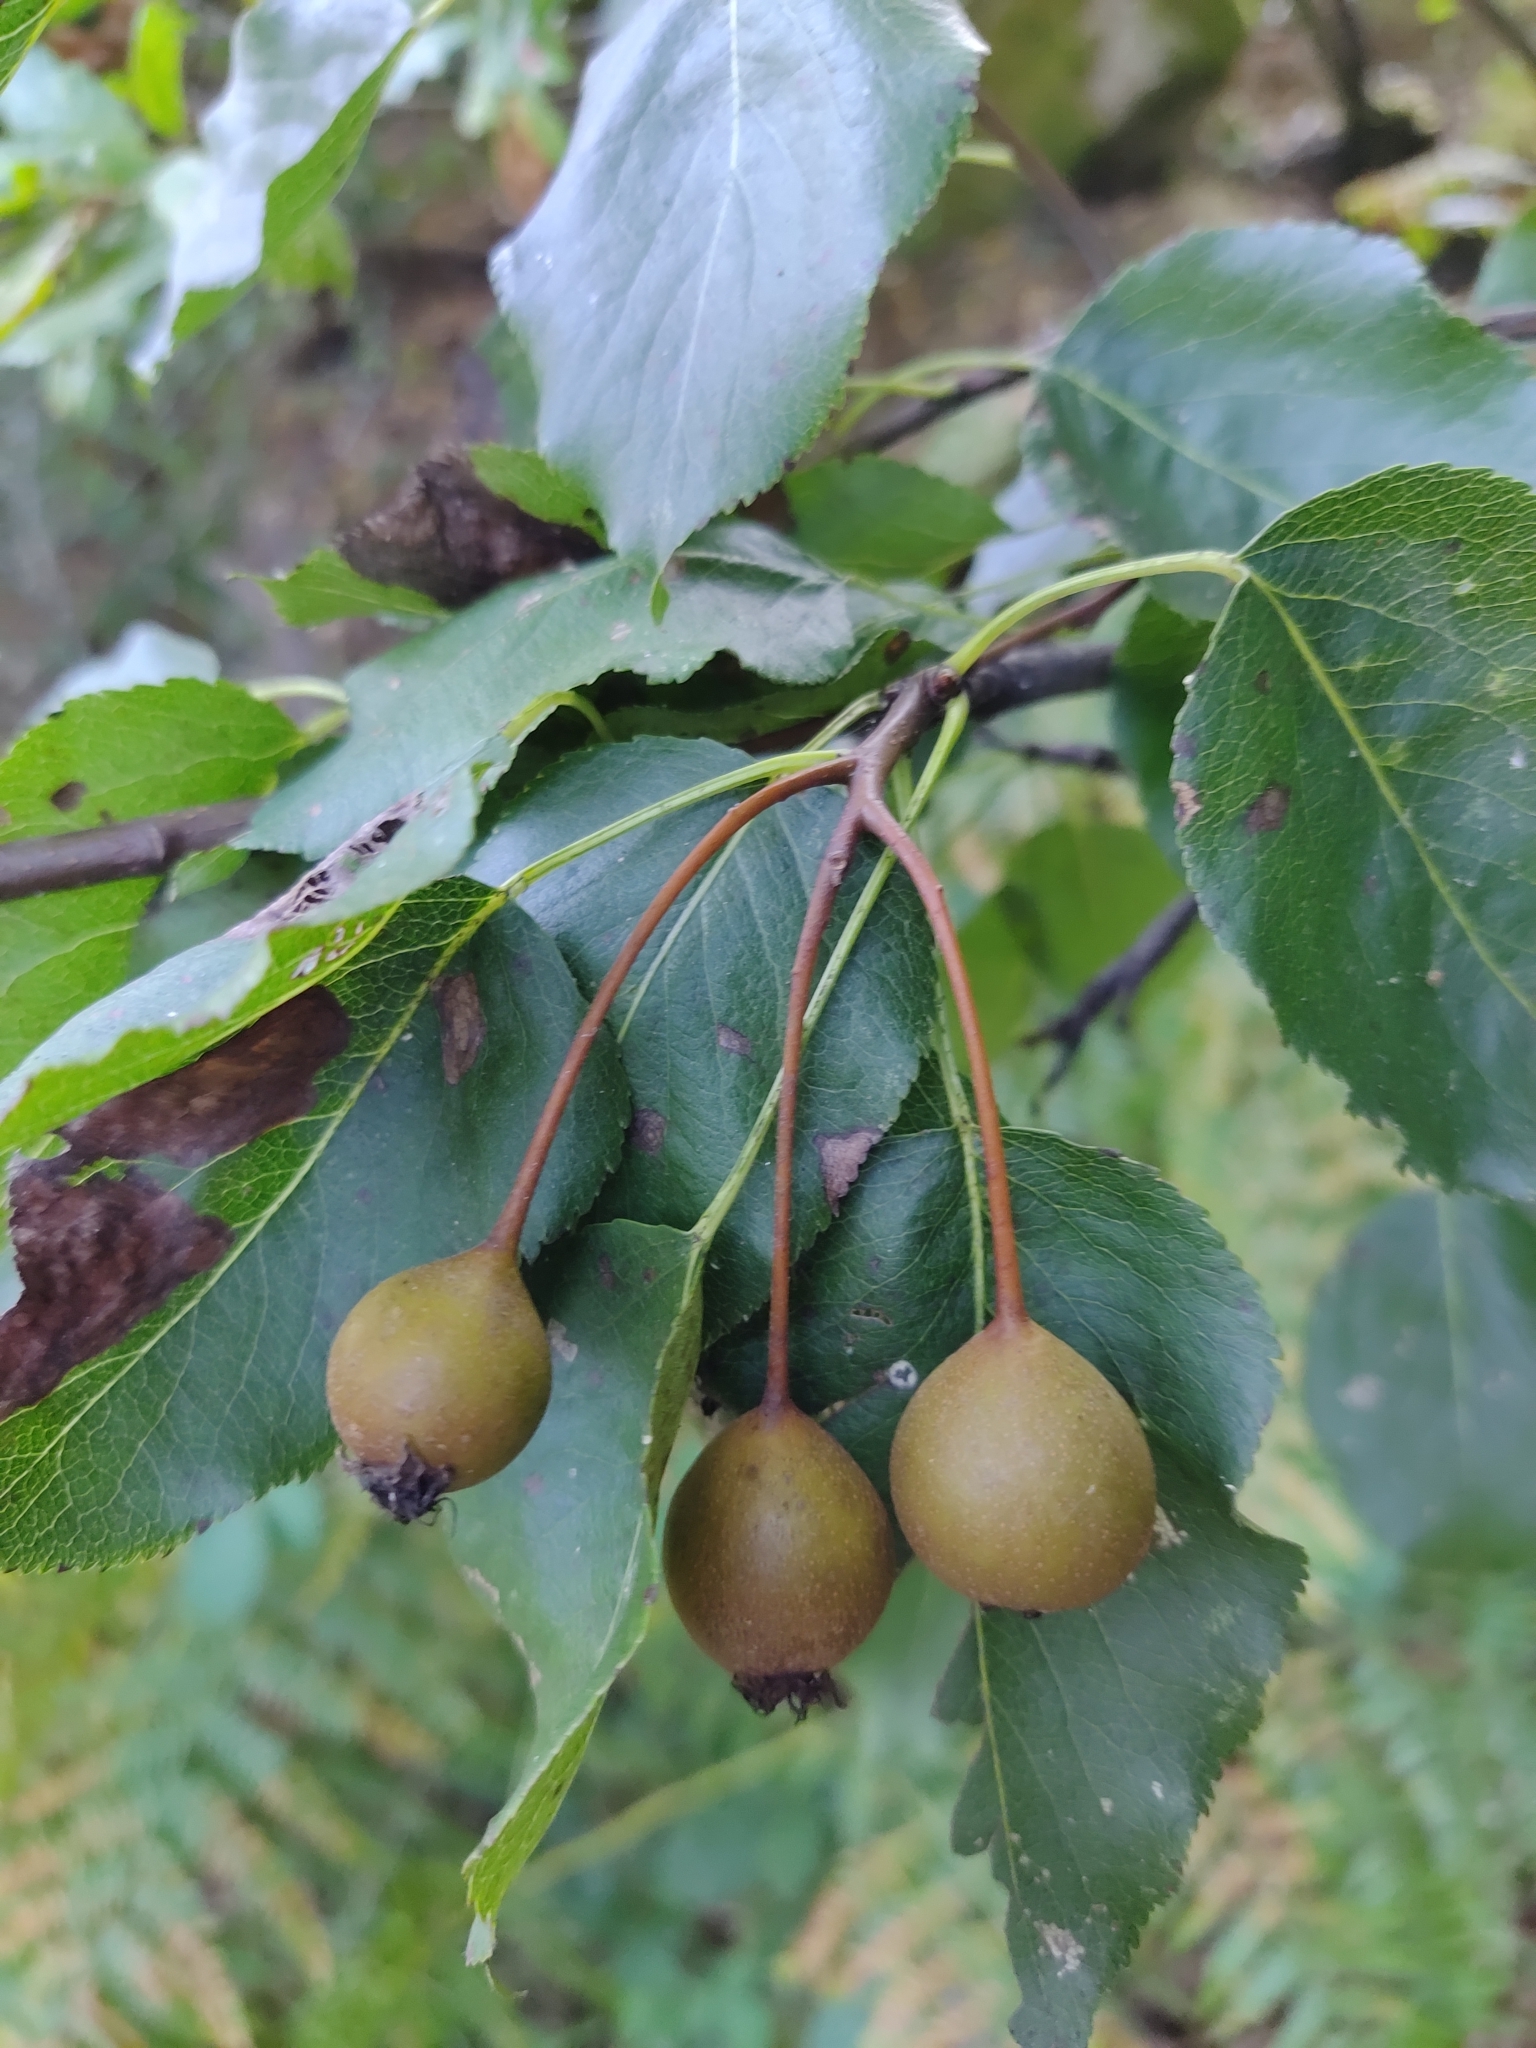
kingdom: Plantae
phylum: Tracheophyta
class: Magnoliopsida
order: Rosales
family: Rosaceae
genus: Pyrus
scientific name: Pyrus cordata
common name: Plymouth pear
